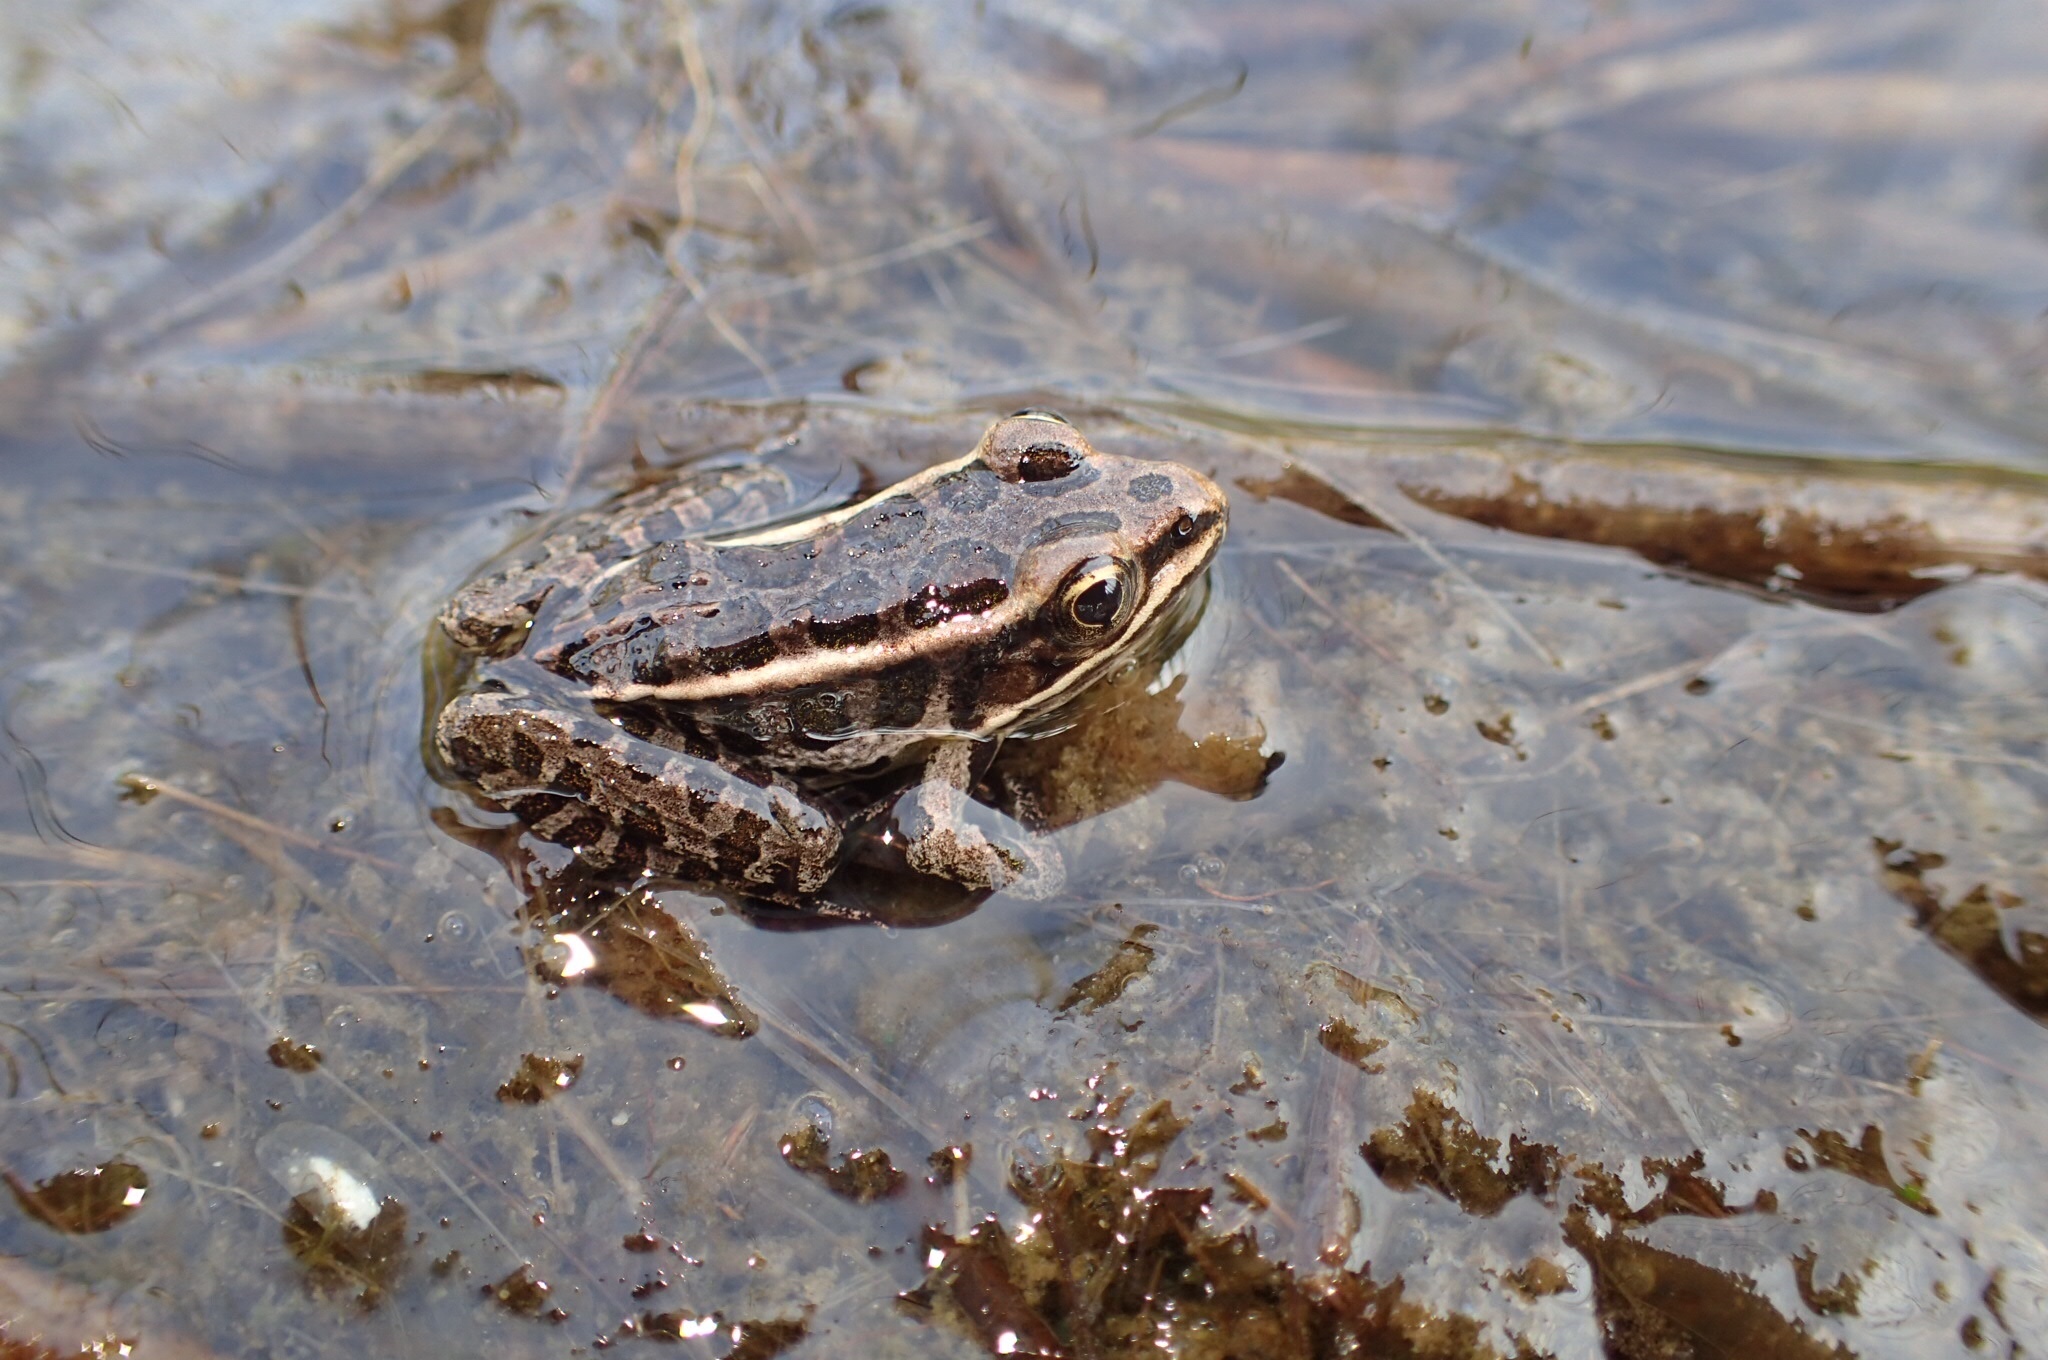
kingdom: Animalia
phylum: Chordata
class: Amphibia
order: Anura
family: Ranidae
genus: Lithobates
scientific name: Lithobates palustris
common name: Pickerel frog
